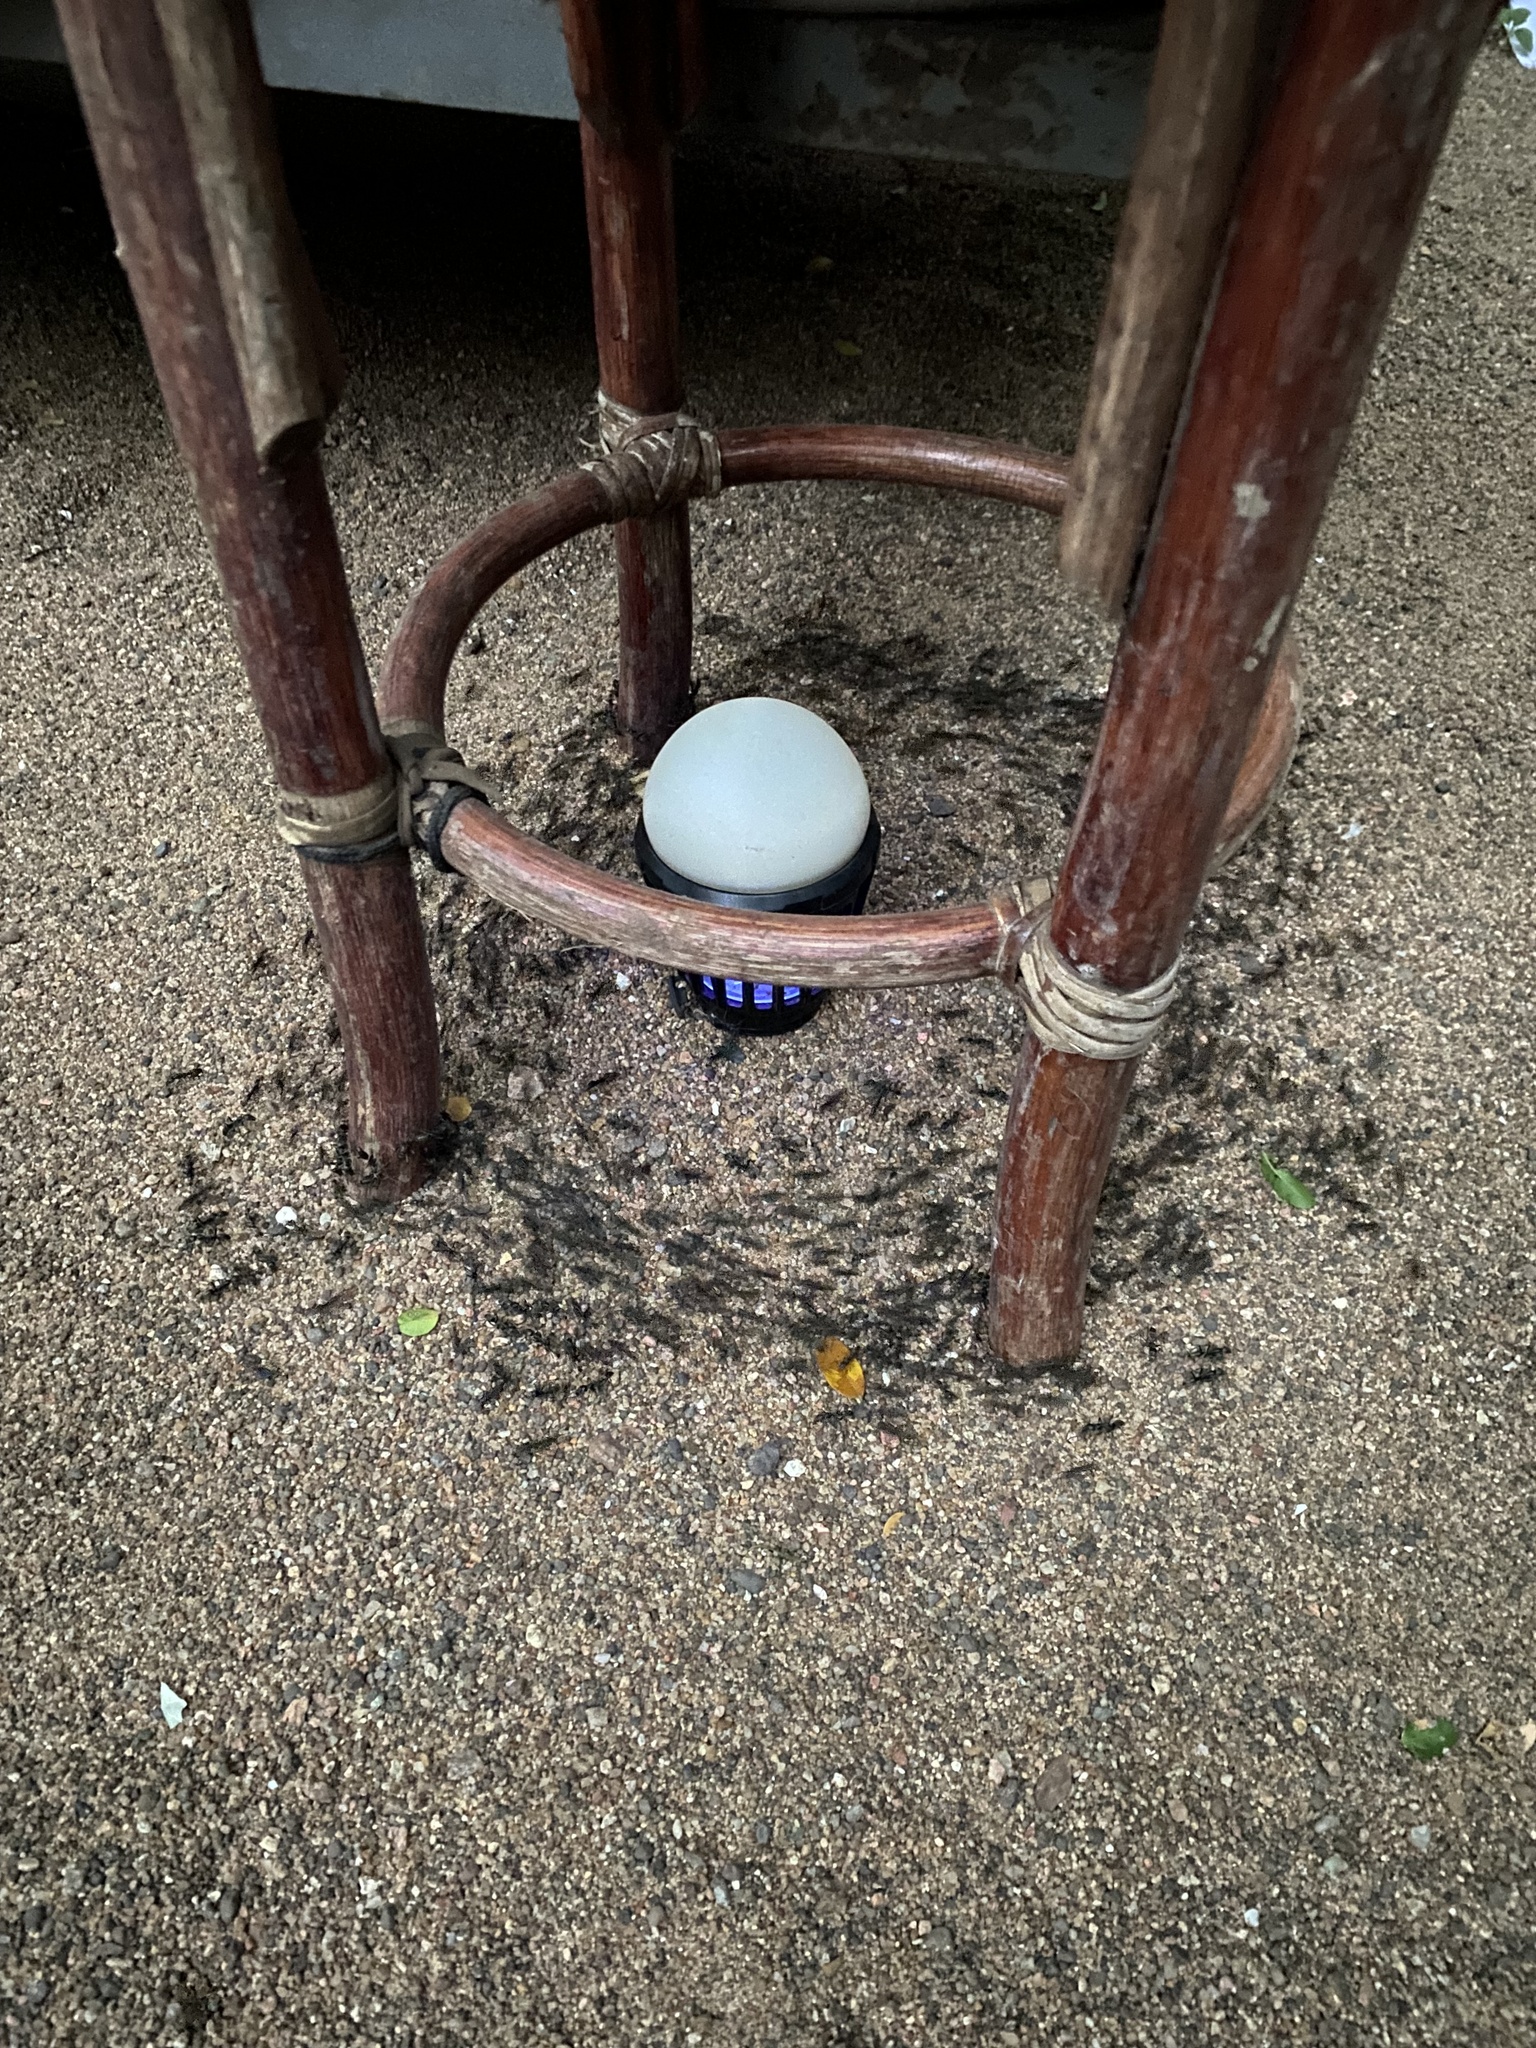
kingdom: Animalia
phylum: Arthropoda
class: Insecta
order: Hymenoptera
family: Formicidae
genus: Megaponera
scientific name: Megaponera analis
